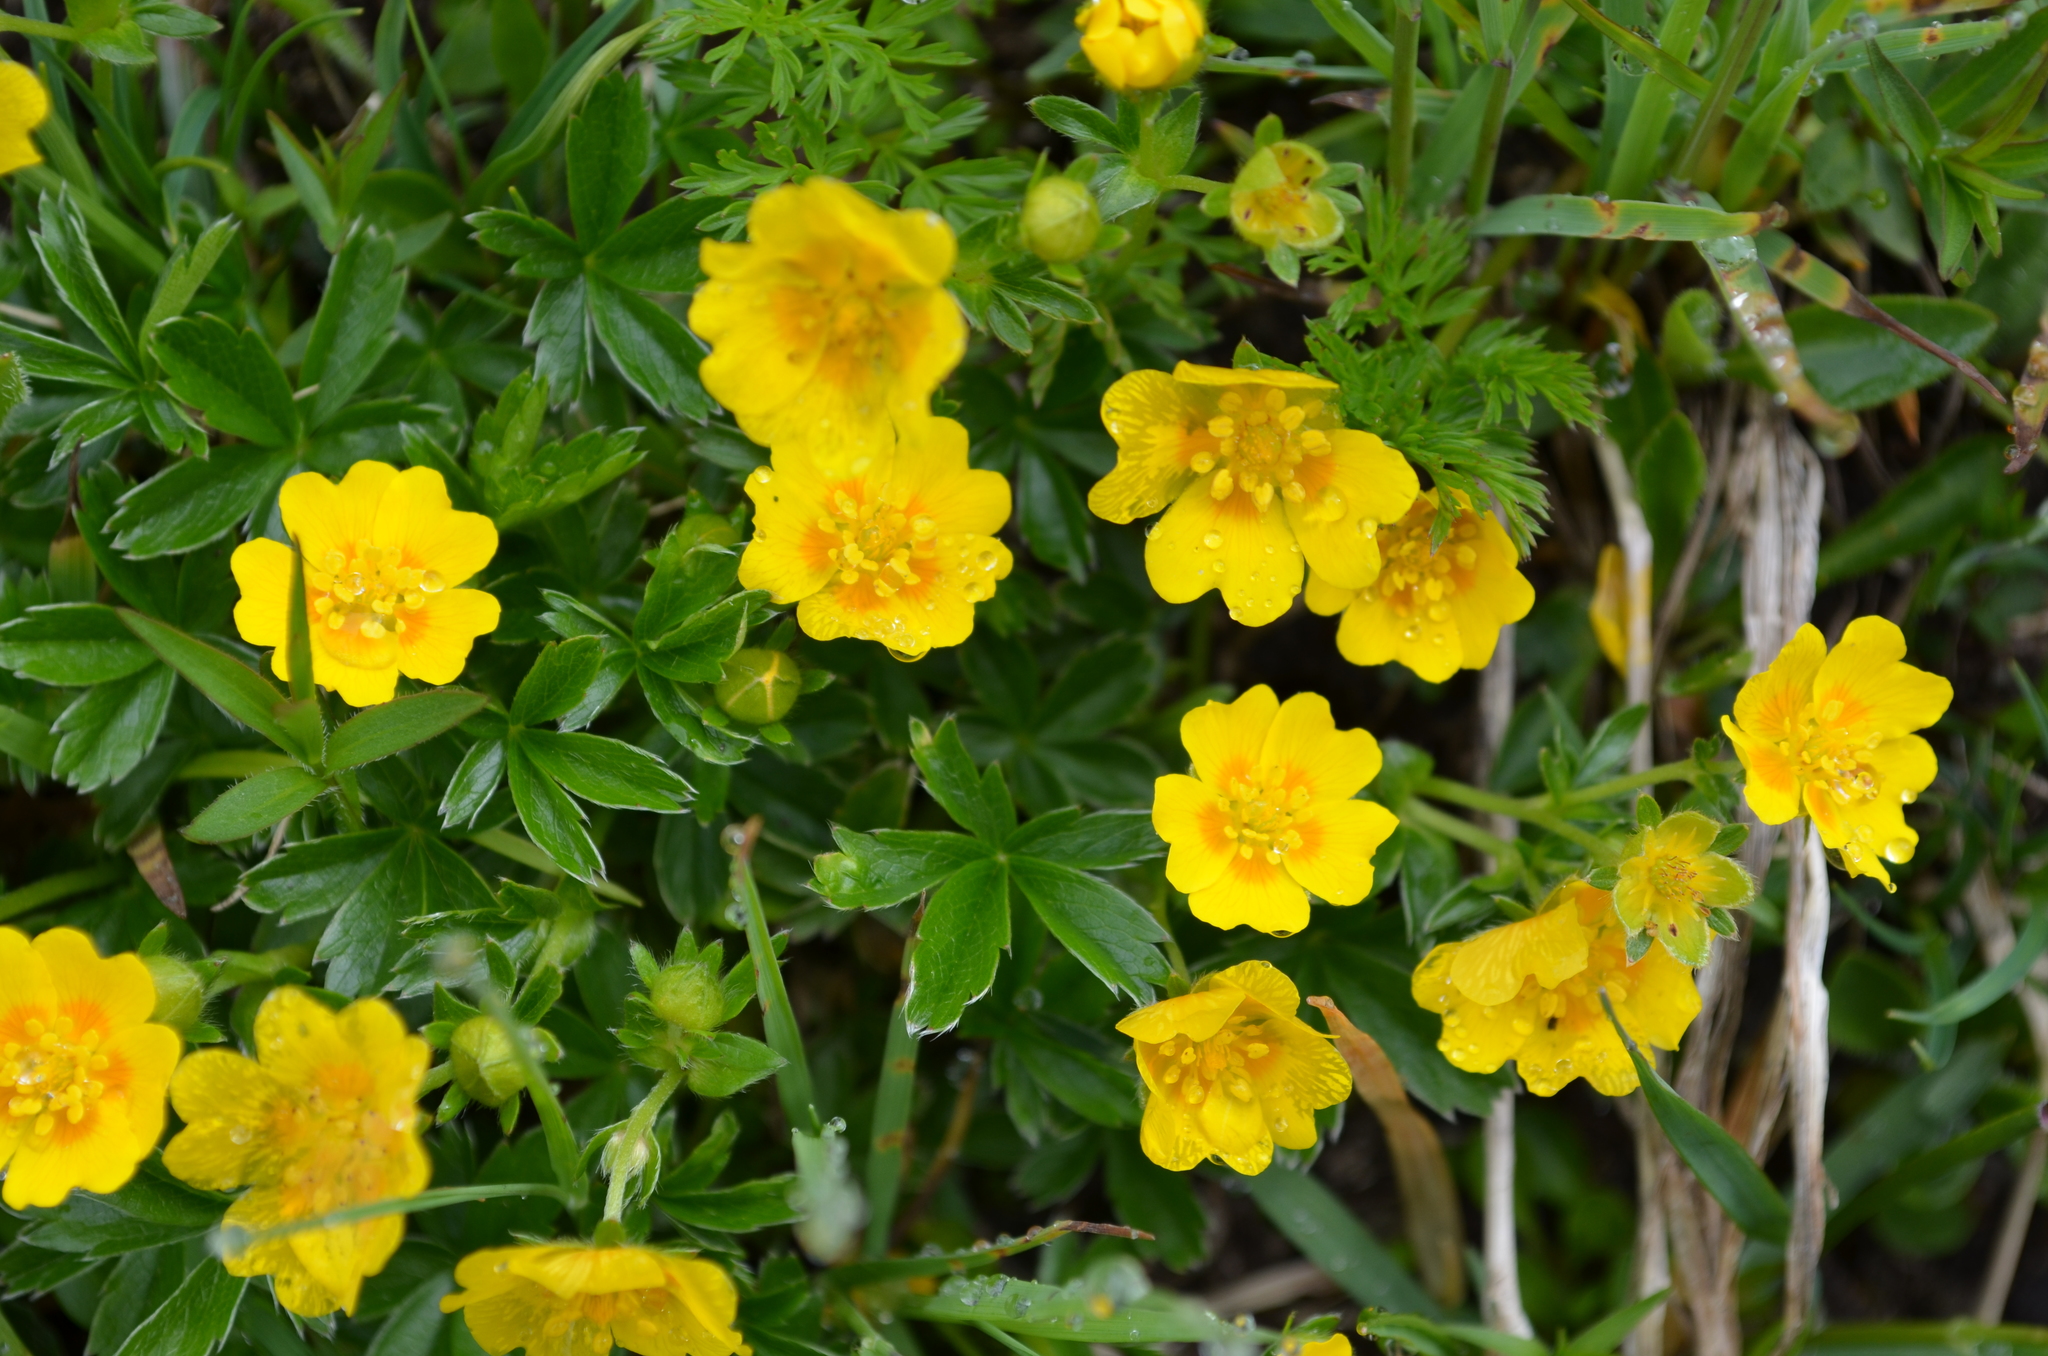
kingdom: Plantae
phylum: Tracheophyta
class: Magnoliopsida
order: Rosales
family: Rosaceae
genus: Potentilla
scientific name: Potentilla aurea
